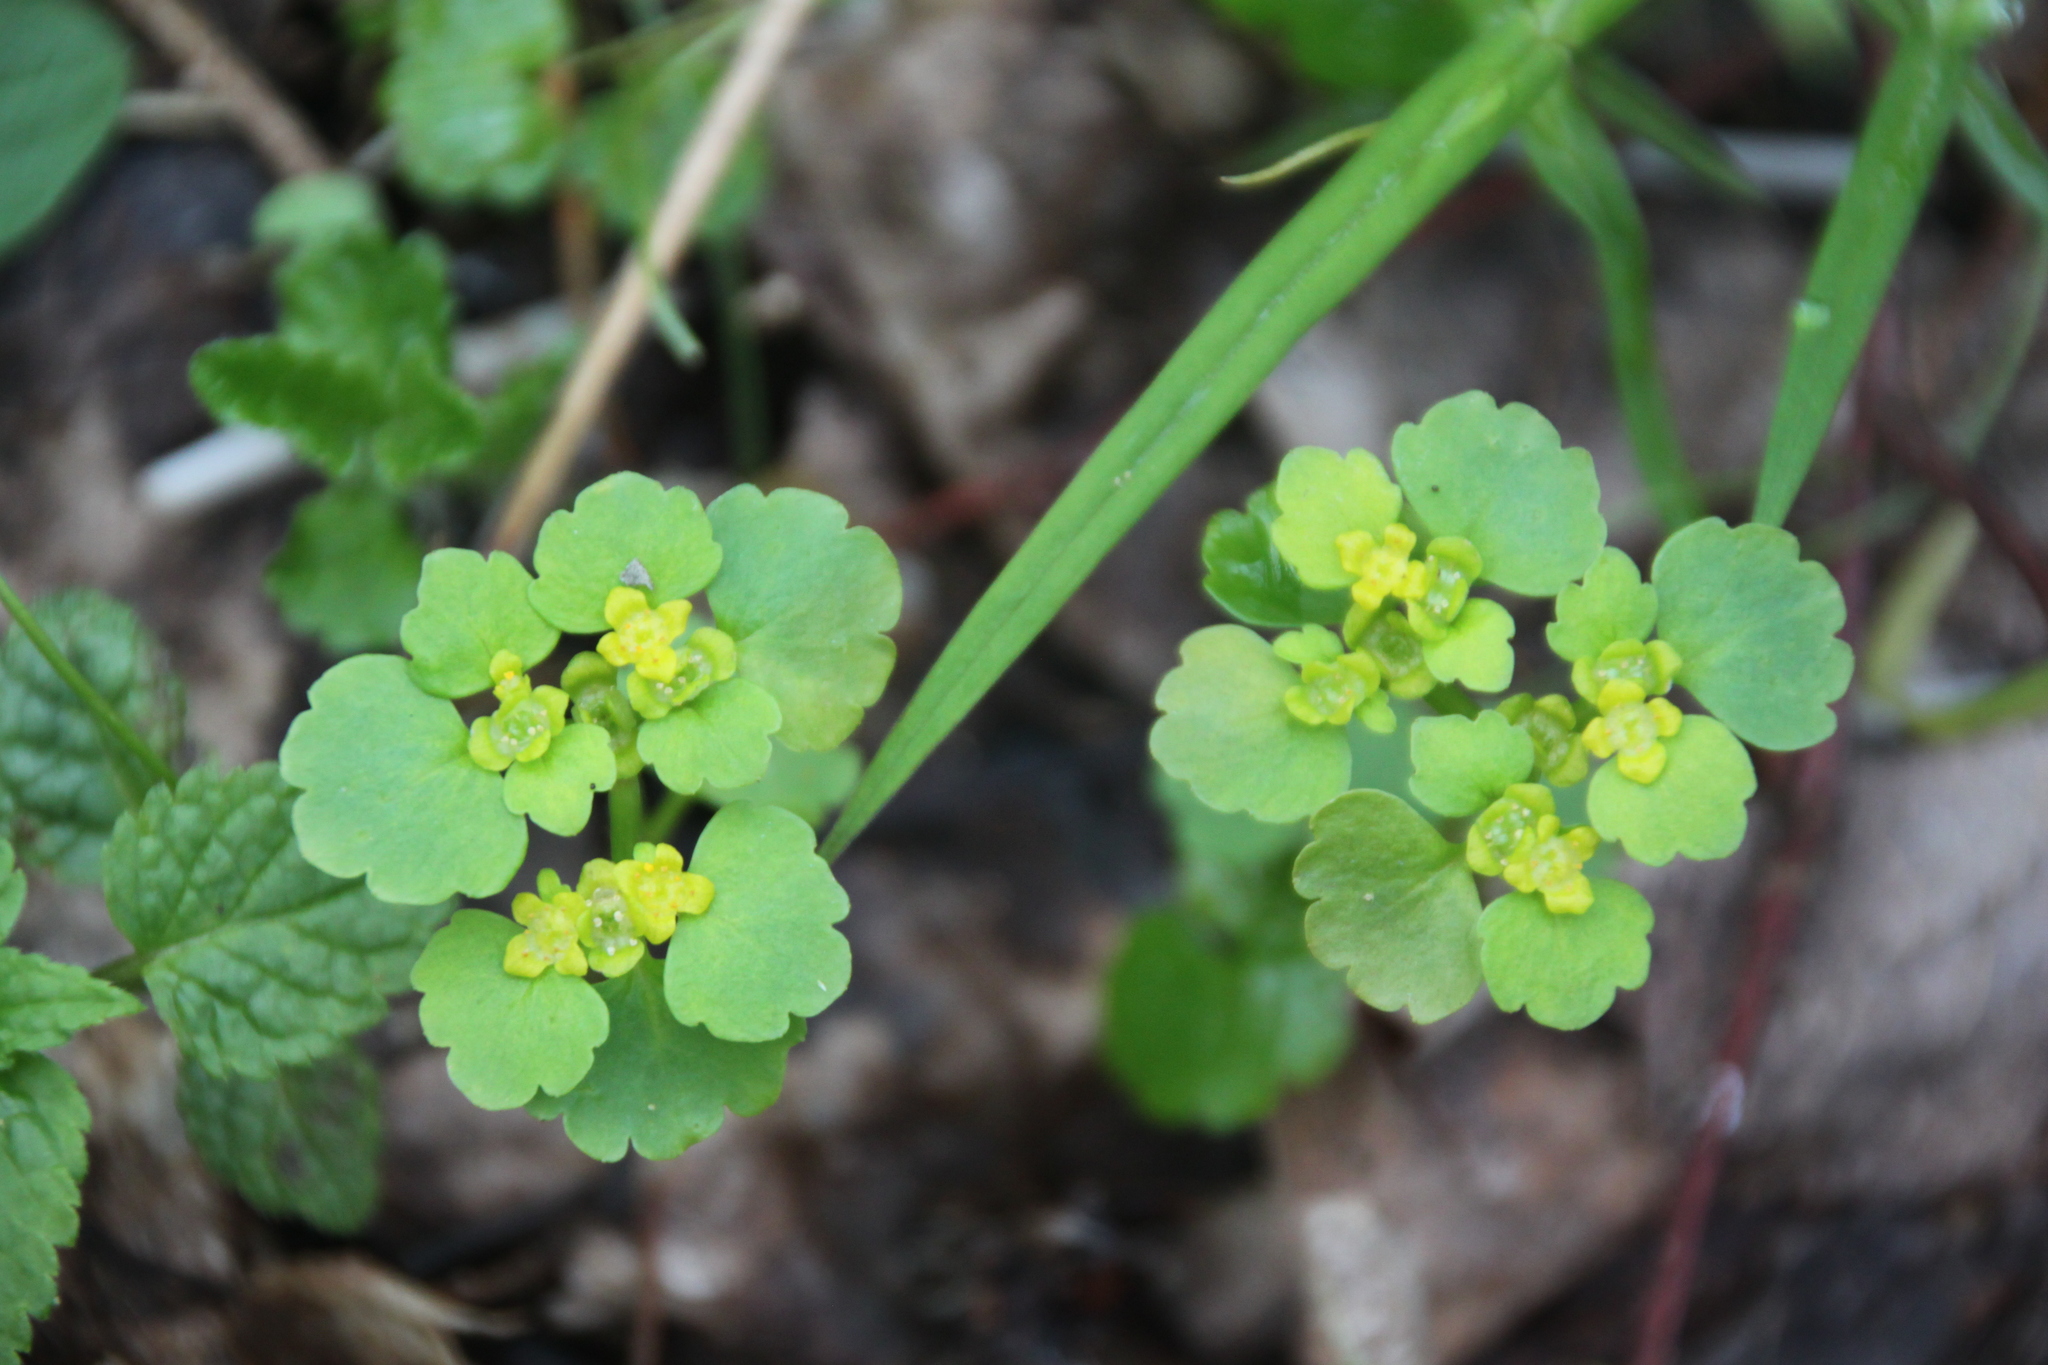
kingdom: Plantae
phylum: Tracheophyta
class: Magnoliopsida
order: Saxifragales
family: Saxifragaceae
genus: Chrysosplenium
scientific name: Chrysosplenium alternifolium
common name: Alternate-leaved golden-saxifrage
